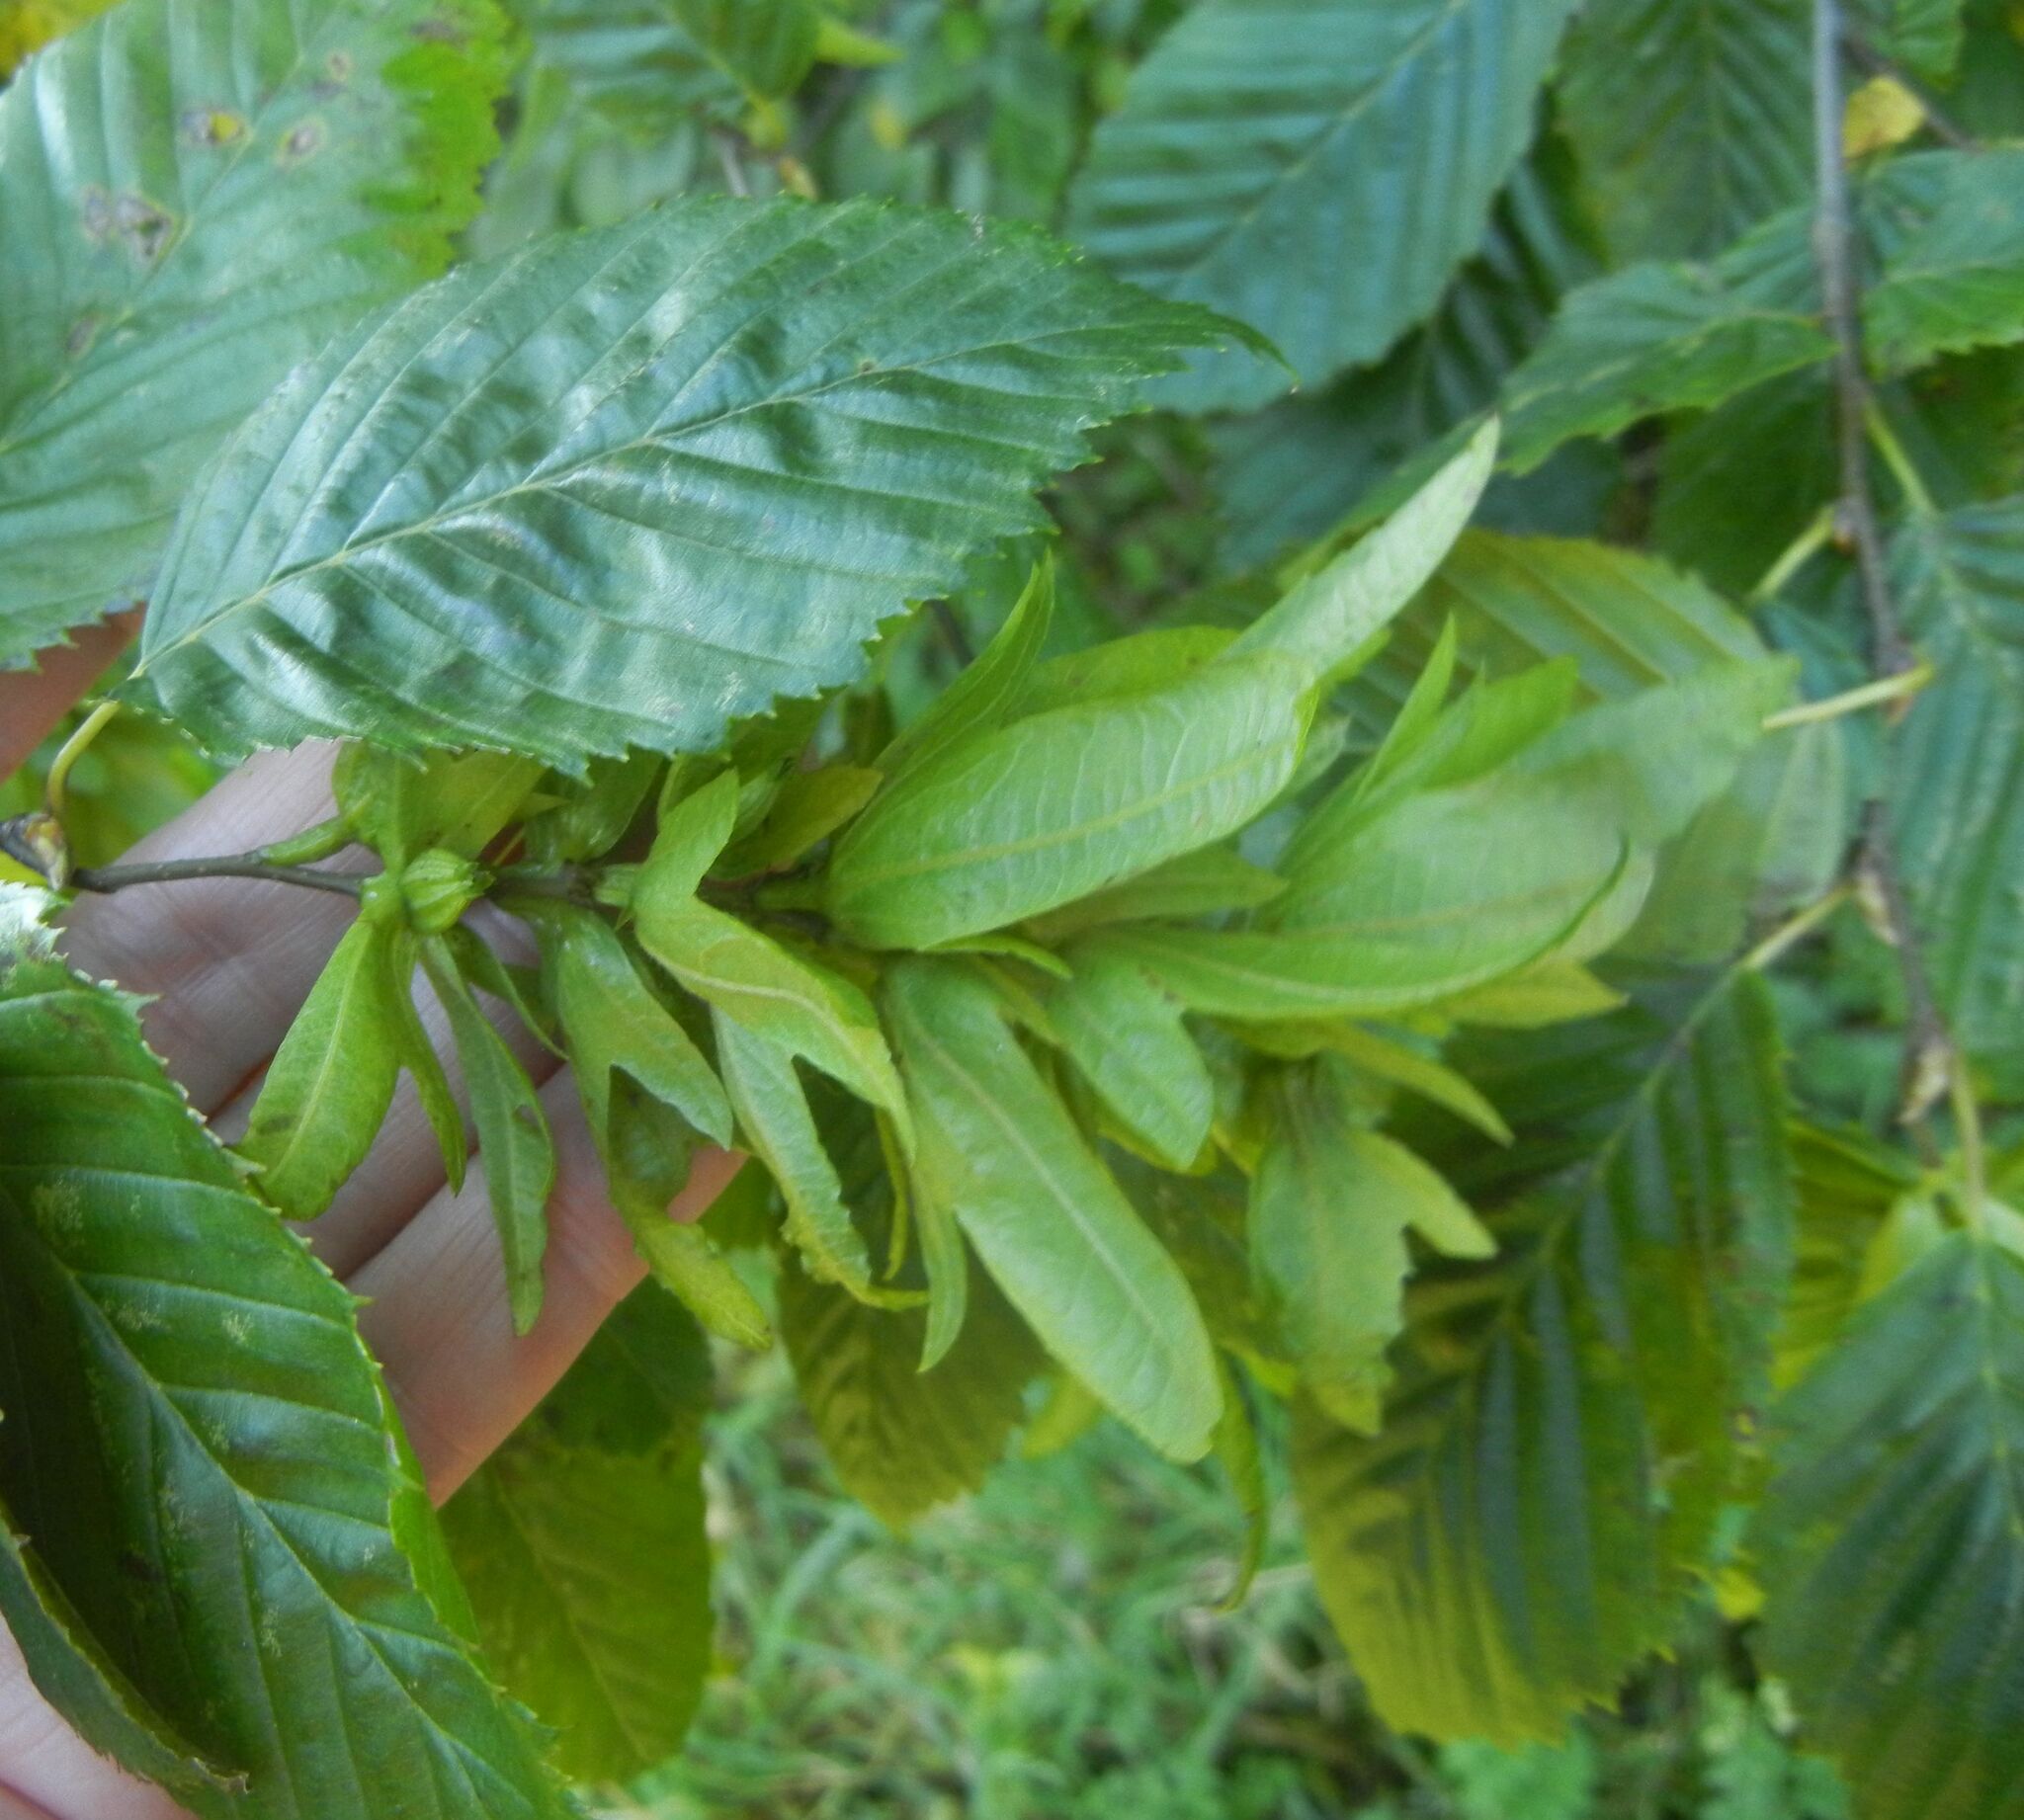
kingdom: Plantae
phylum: Tracheophyta
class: Magnoliopsida
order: Fagales
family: Betulaceae
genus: Carpinus
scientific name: Carpinus betulus
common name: Hornbeam
